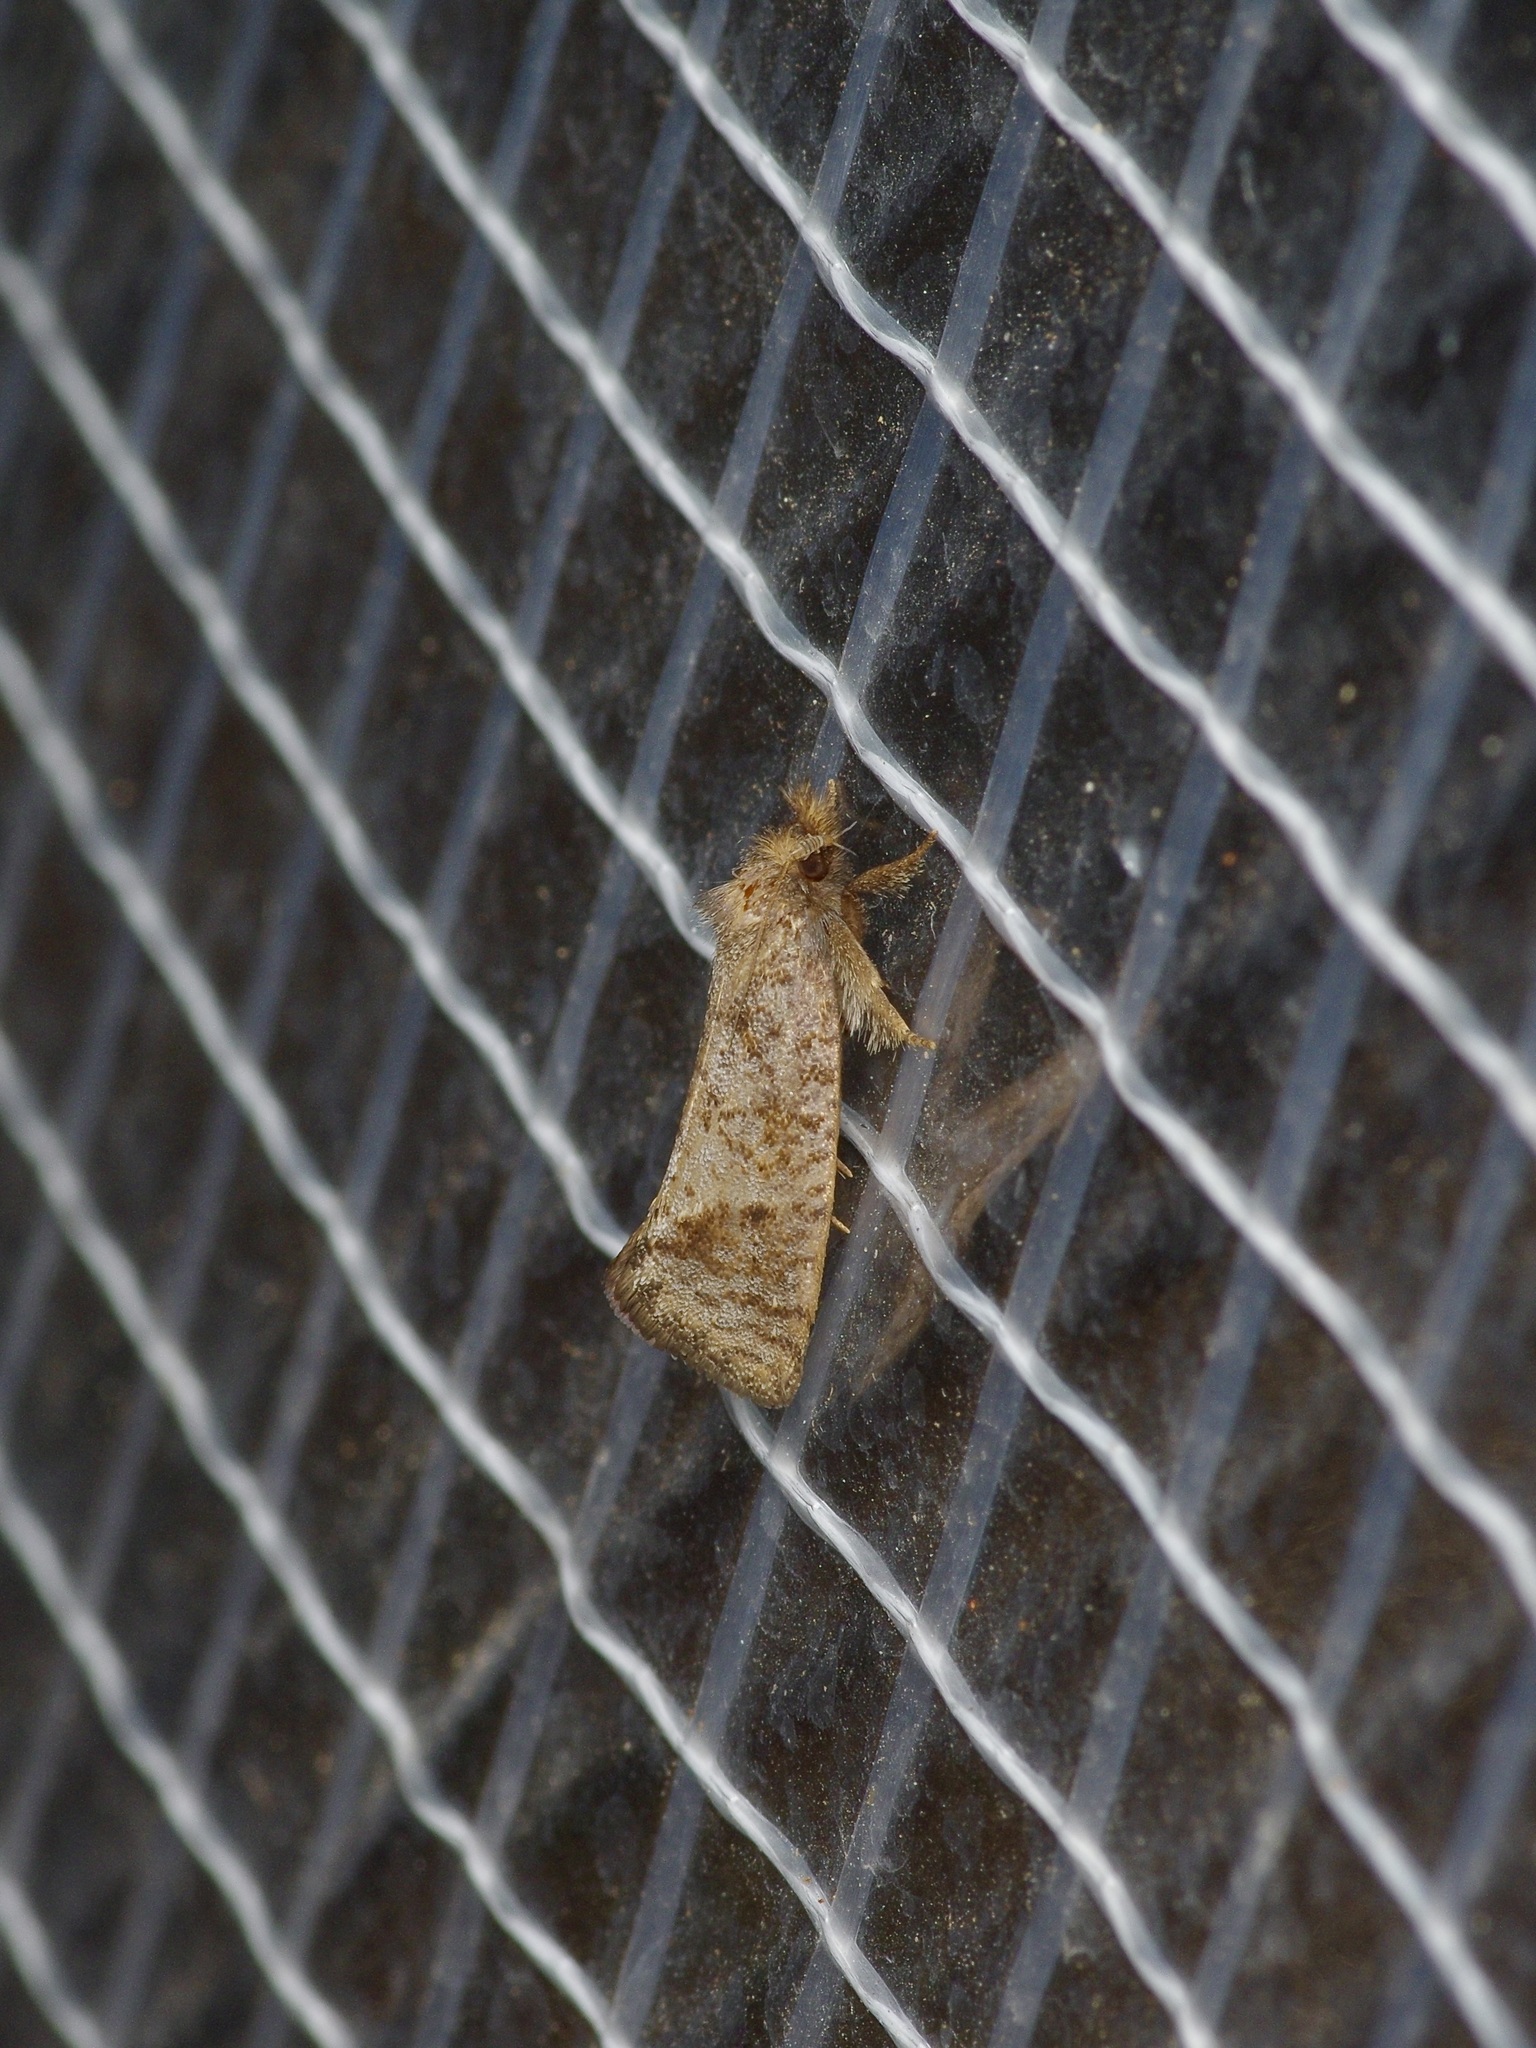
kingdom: Animalia
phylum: Arthropoda
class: Insecta
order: Lepidoptera
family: Tineidae
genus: Acrolophus
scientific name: Acrolophus texanella
